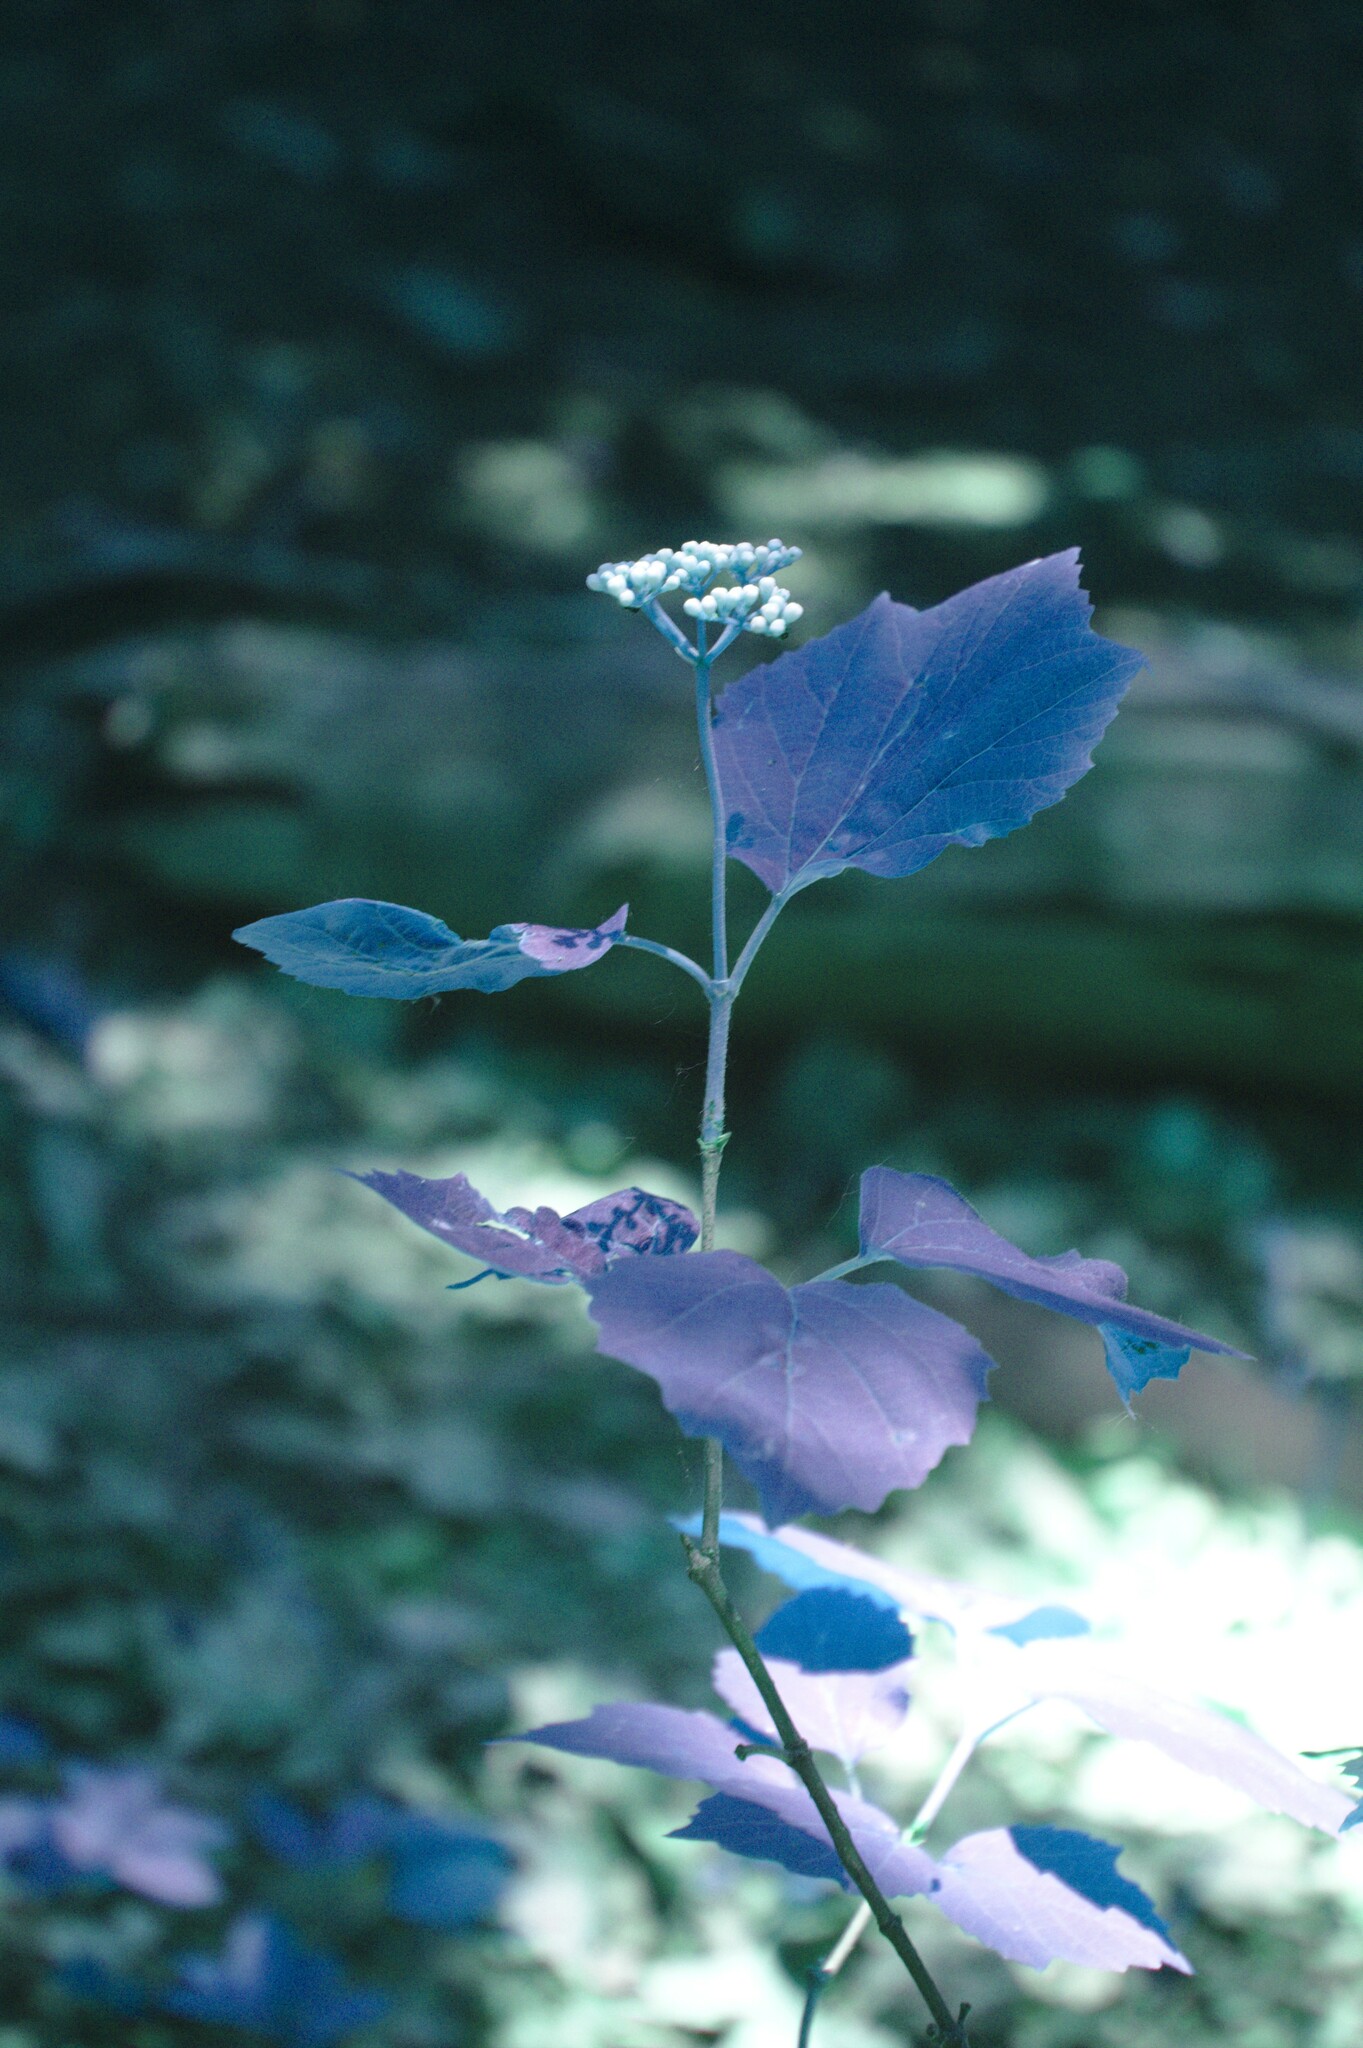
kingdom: Plantae
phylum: Tracheophyta
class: Magnoliopsida
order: Dipsacales
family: Viburnaceae
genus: Viburnum
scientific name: Viburnum acerifolium
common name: Dockmackie
